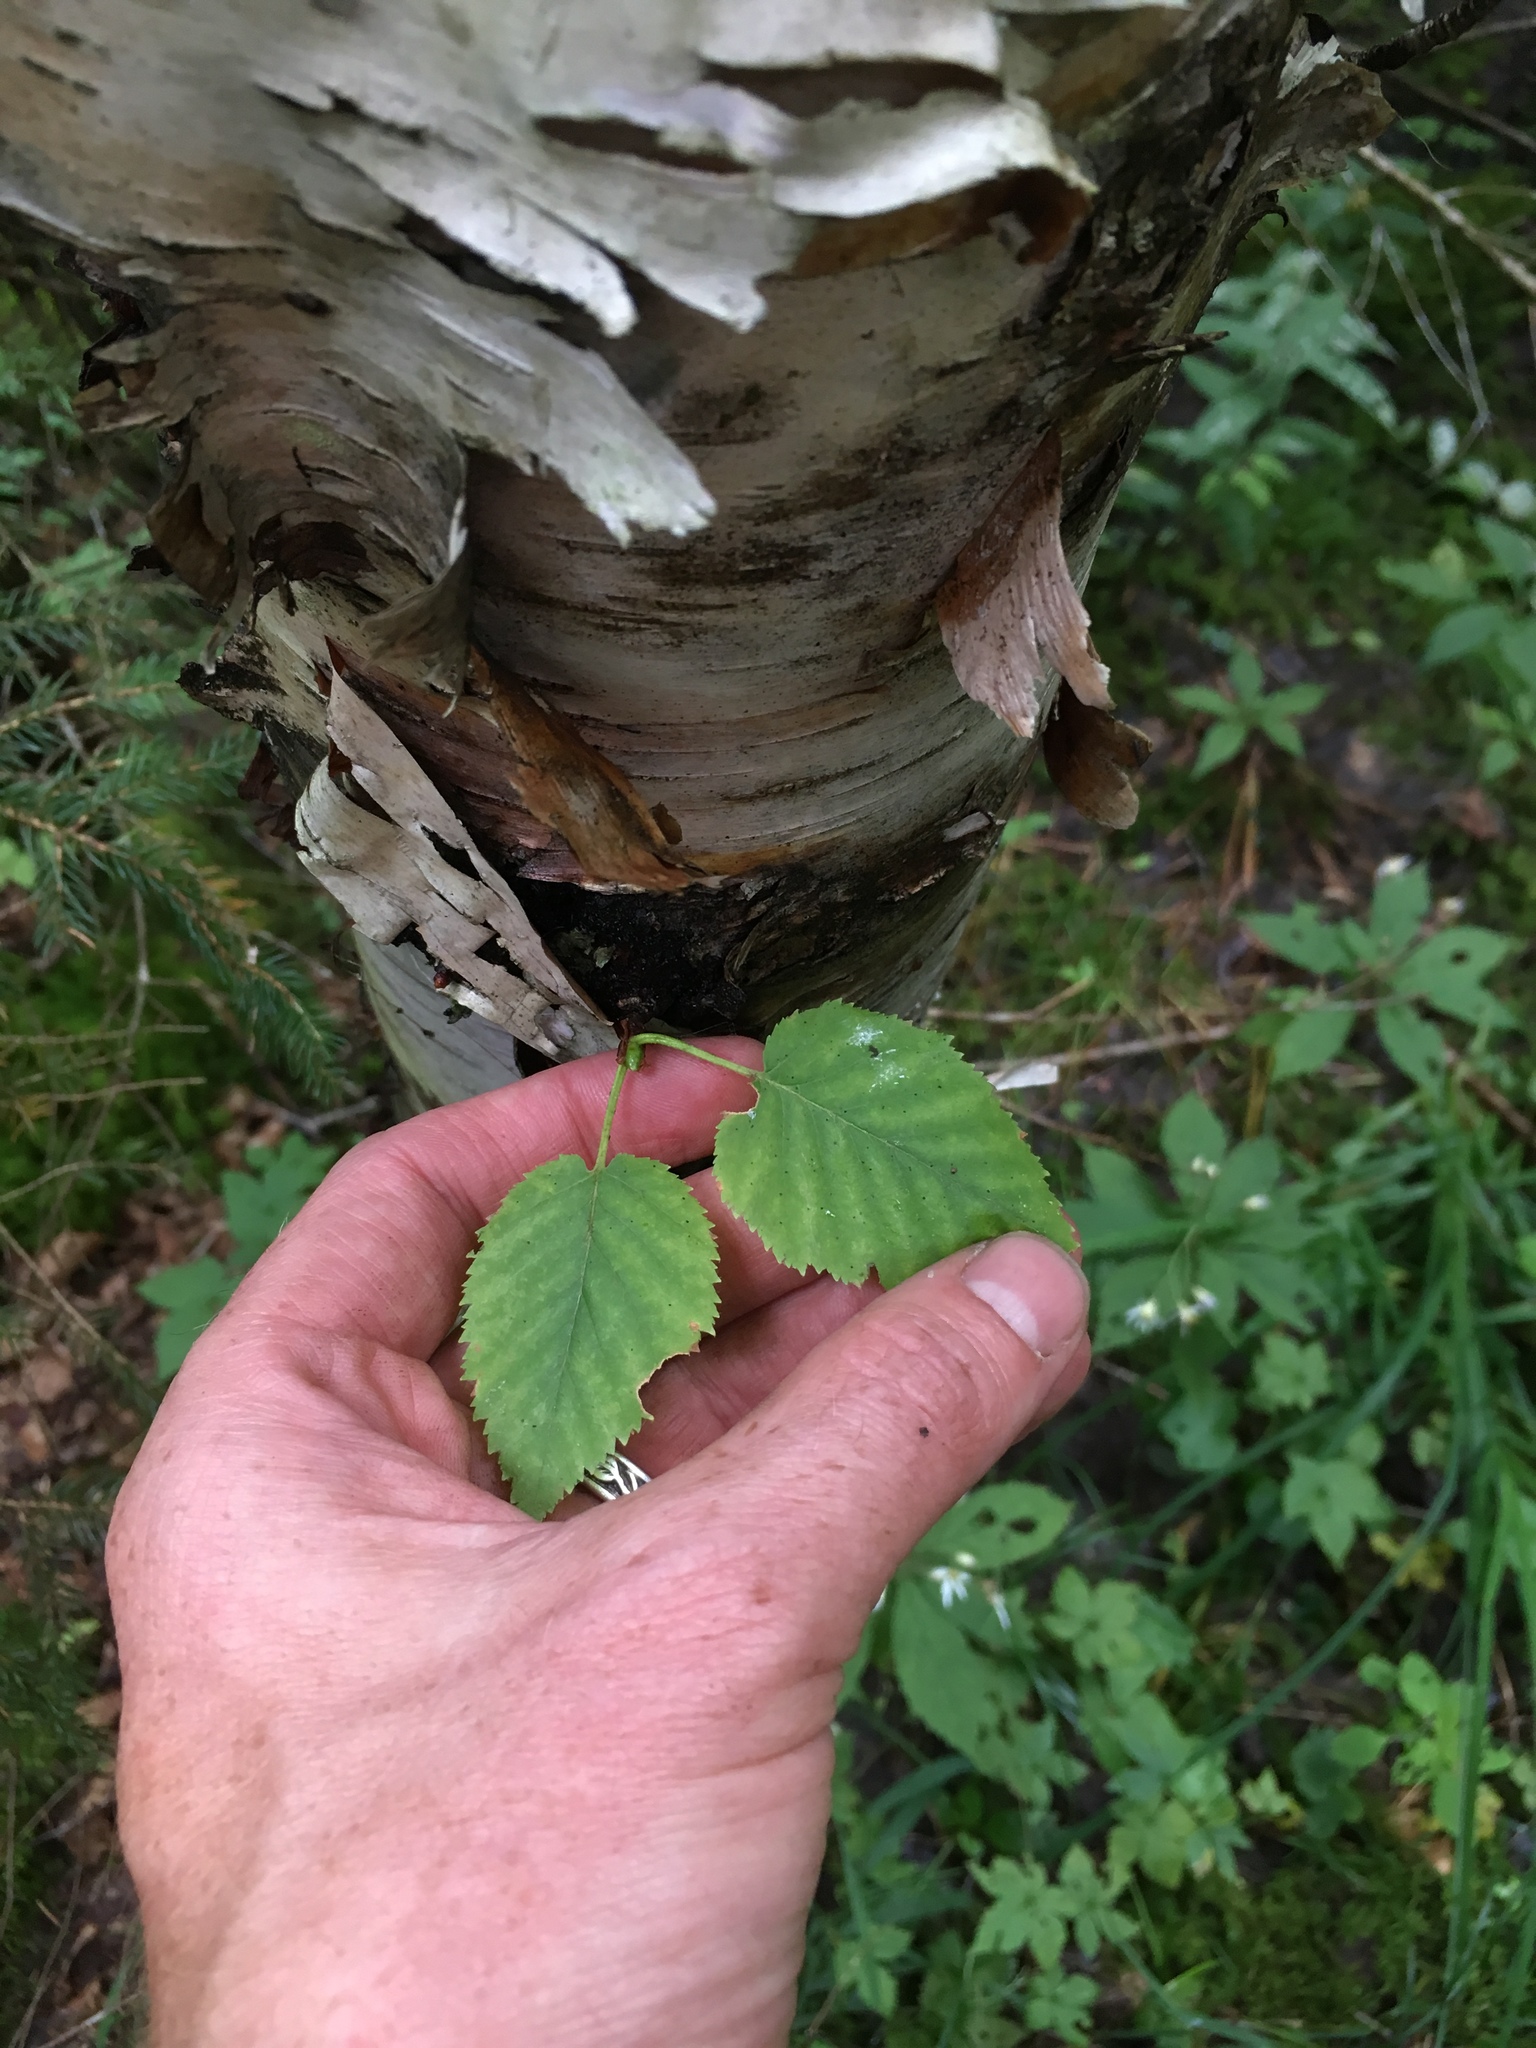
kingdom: Plantae
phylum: Tracheophyta
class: Magnoliopsida
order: Fagales
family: Betulaceae
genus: Betula
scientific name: Betula cordifolia
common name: Mountain white birch
